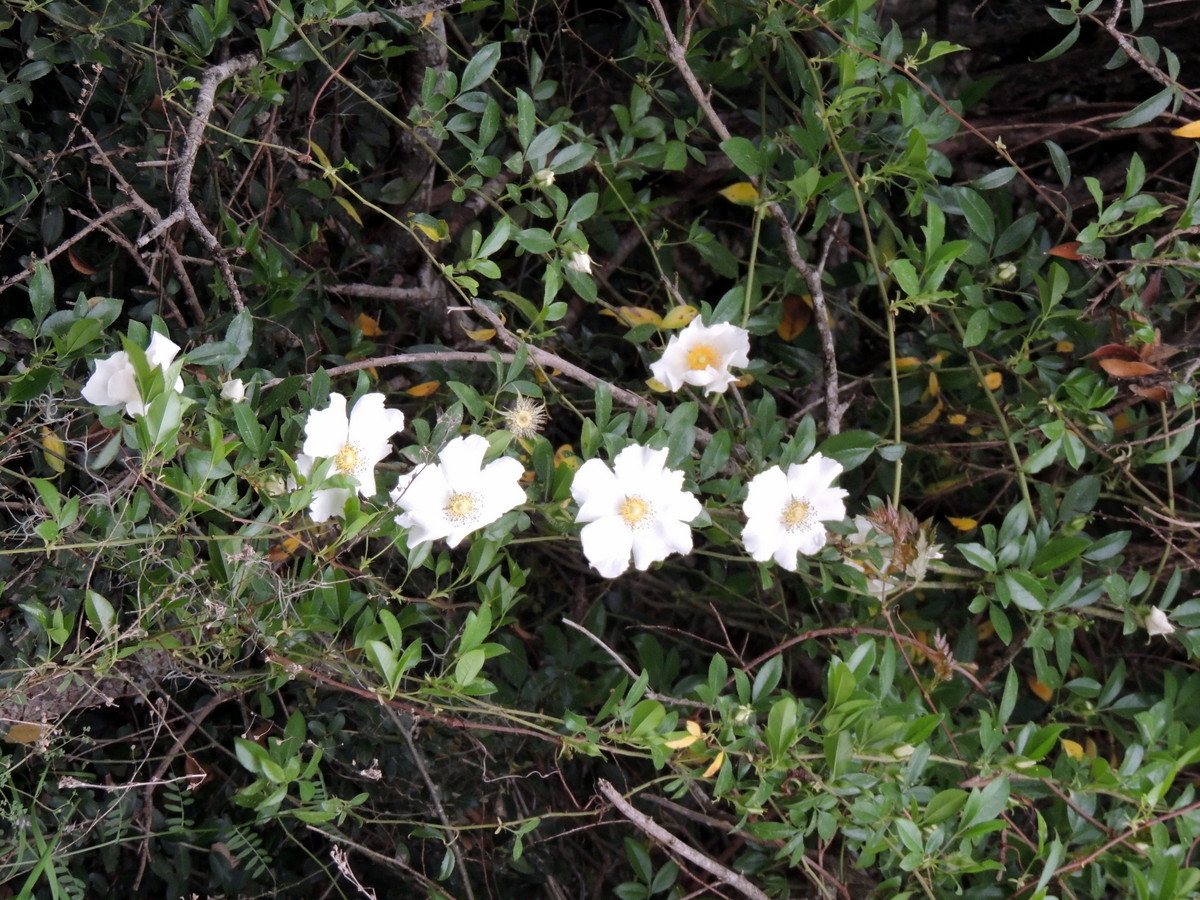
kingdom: Plantae
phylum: Tracheophyta
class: Magnoliopsida
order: Rosales
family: Rosaceae
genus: Rosa
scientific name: Rosa laevigata
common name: Cherokee rose
